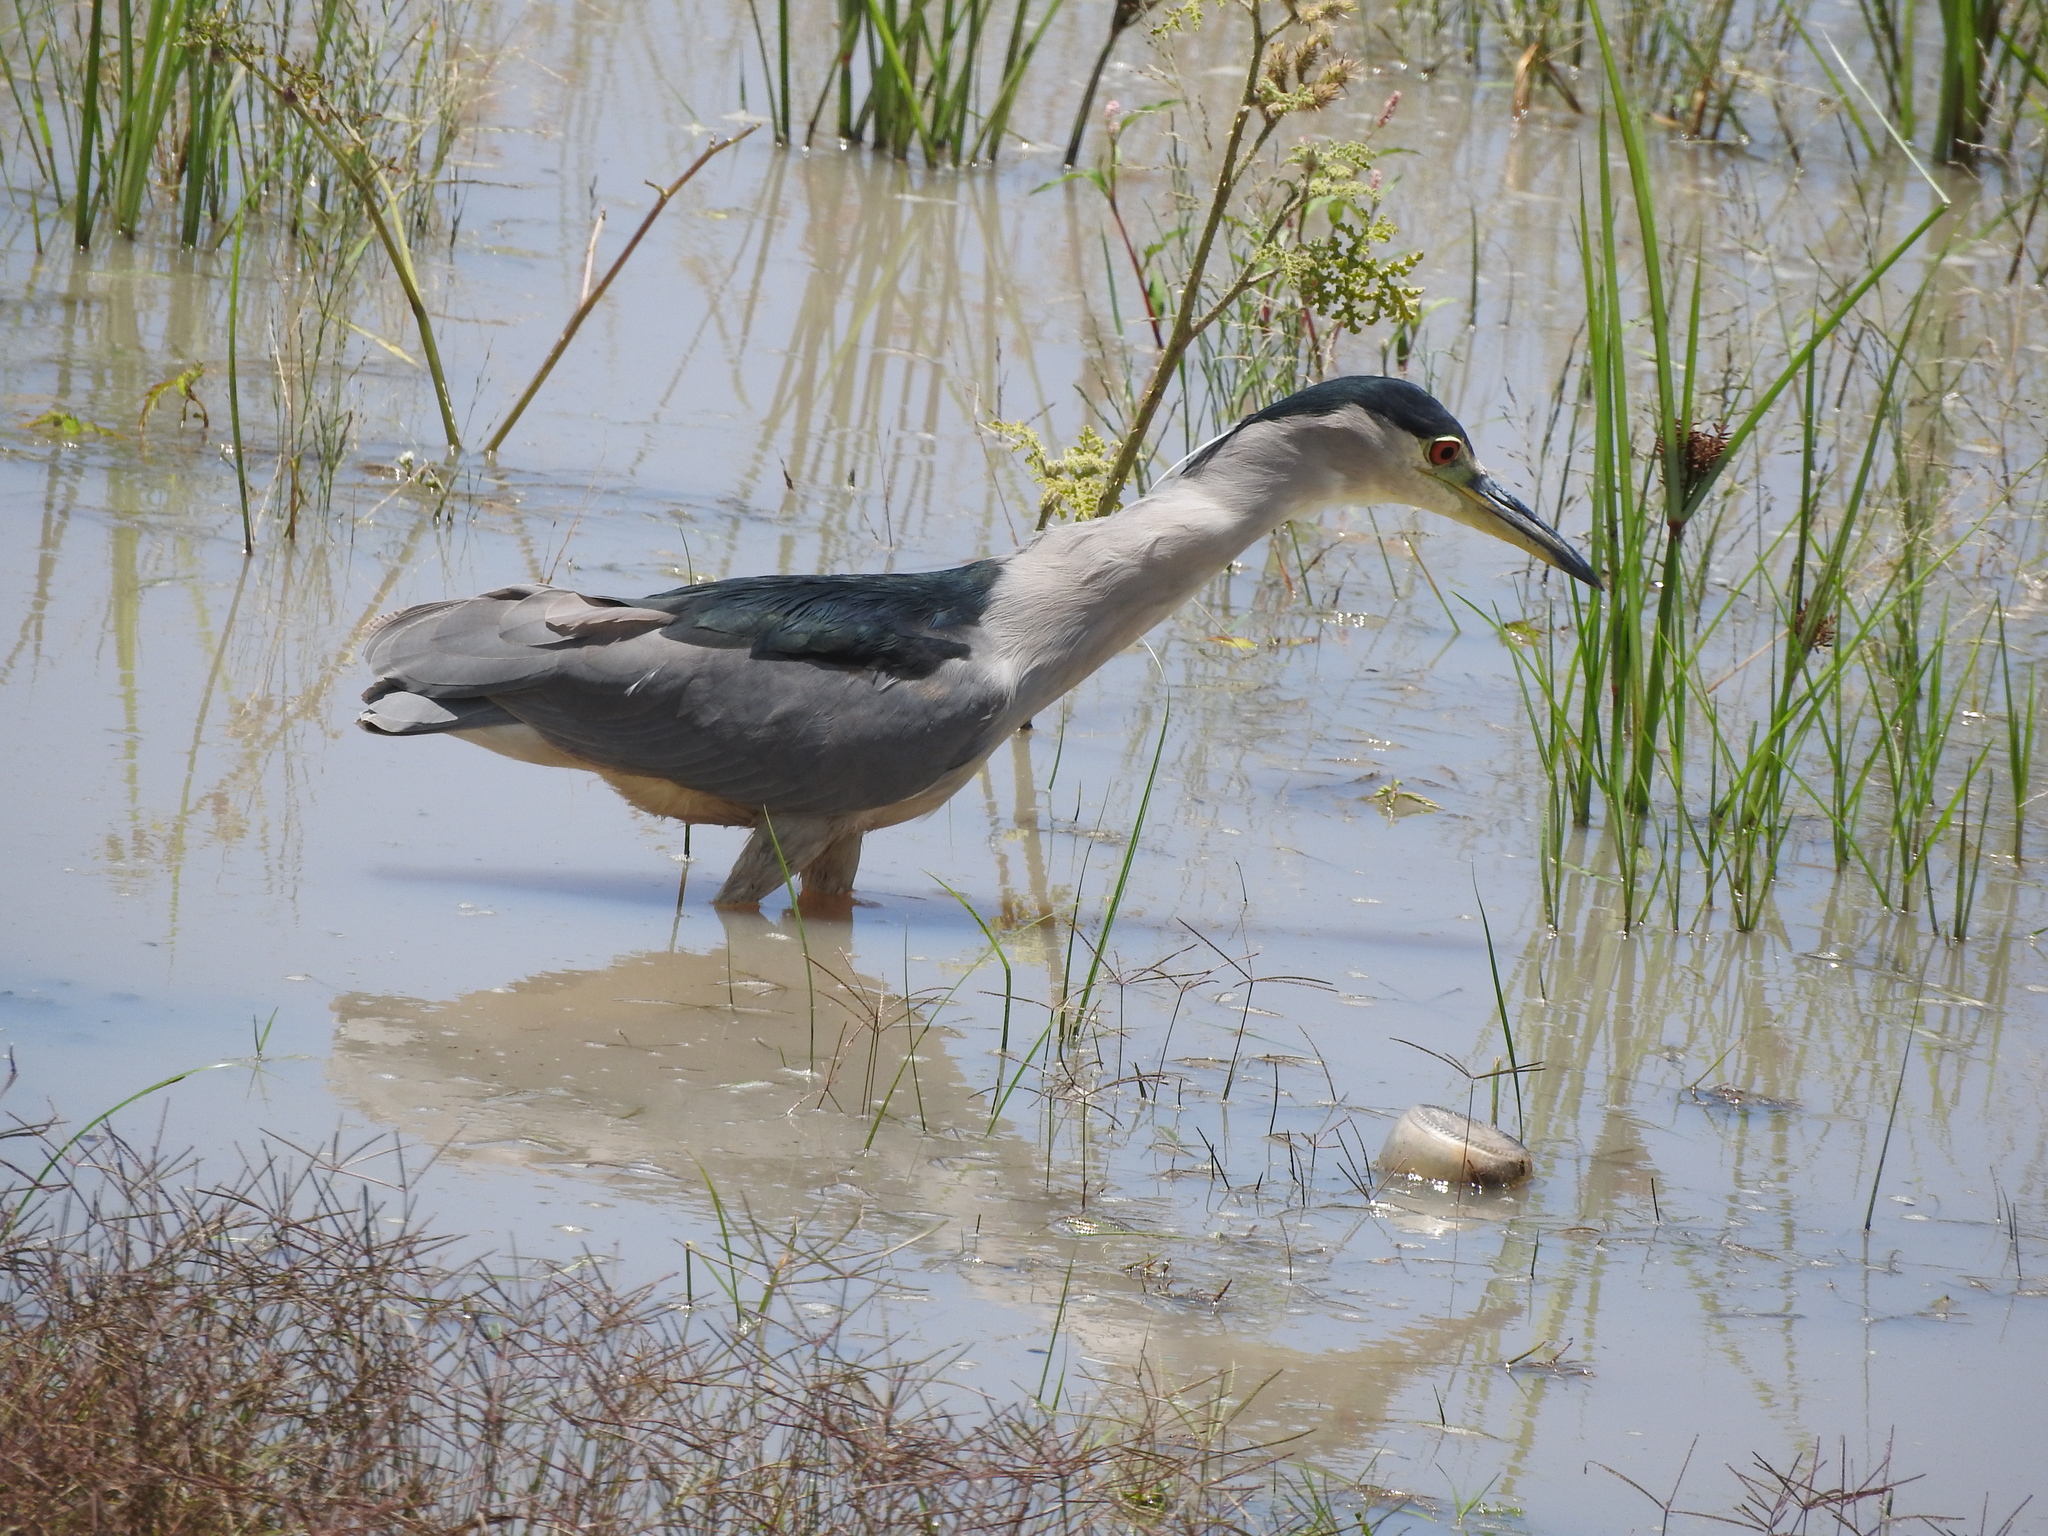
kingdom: Animalia
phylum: Chordata
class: Aves
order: Pelecaniformes
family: Ardeidae
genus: Nycticorax
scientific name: Nycticorax nycticorax
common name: Black-crowned night heron
